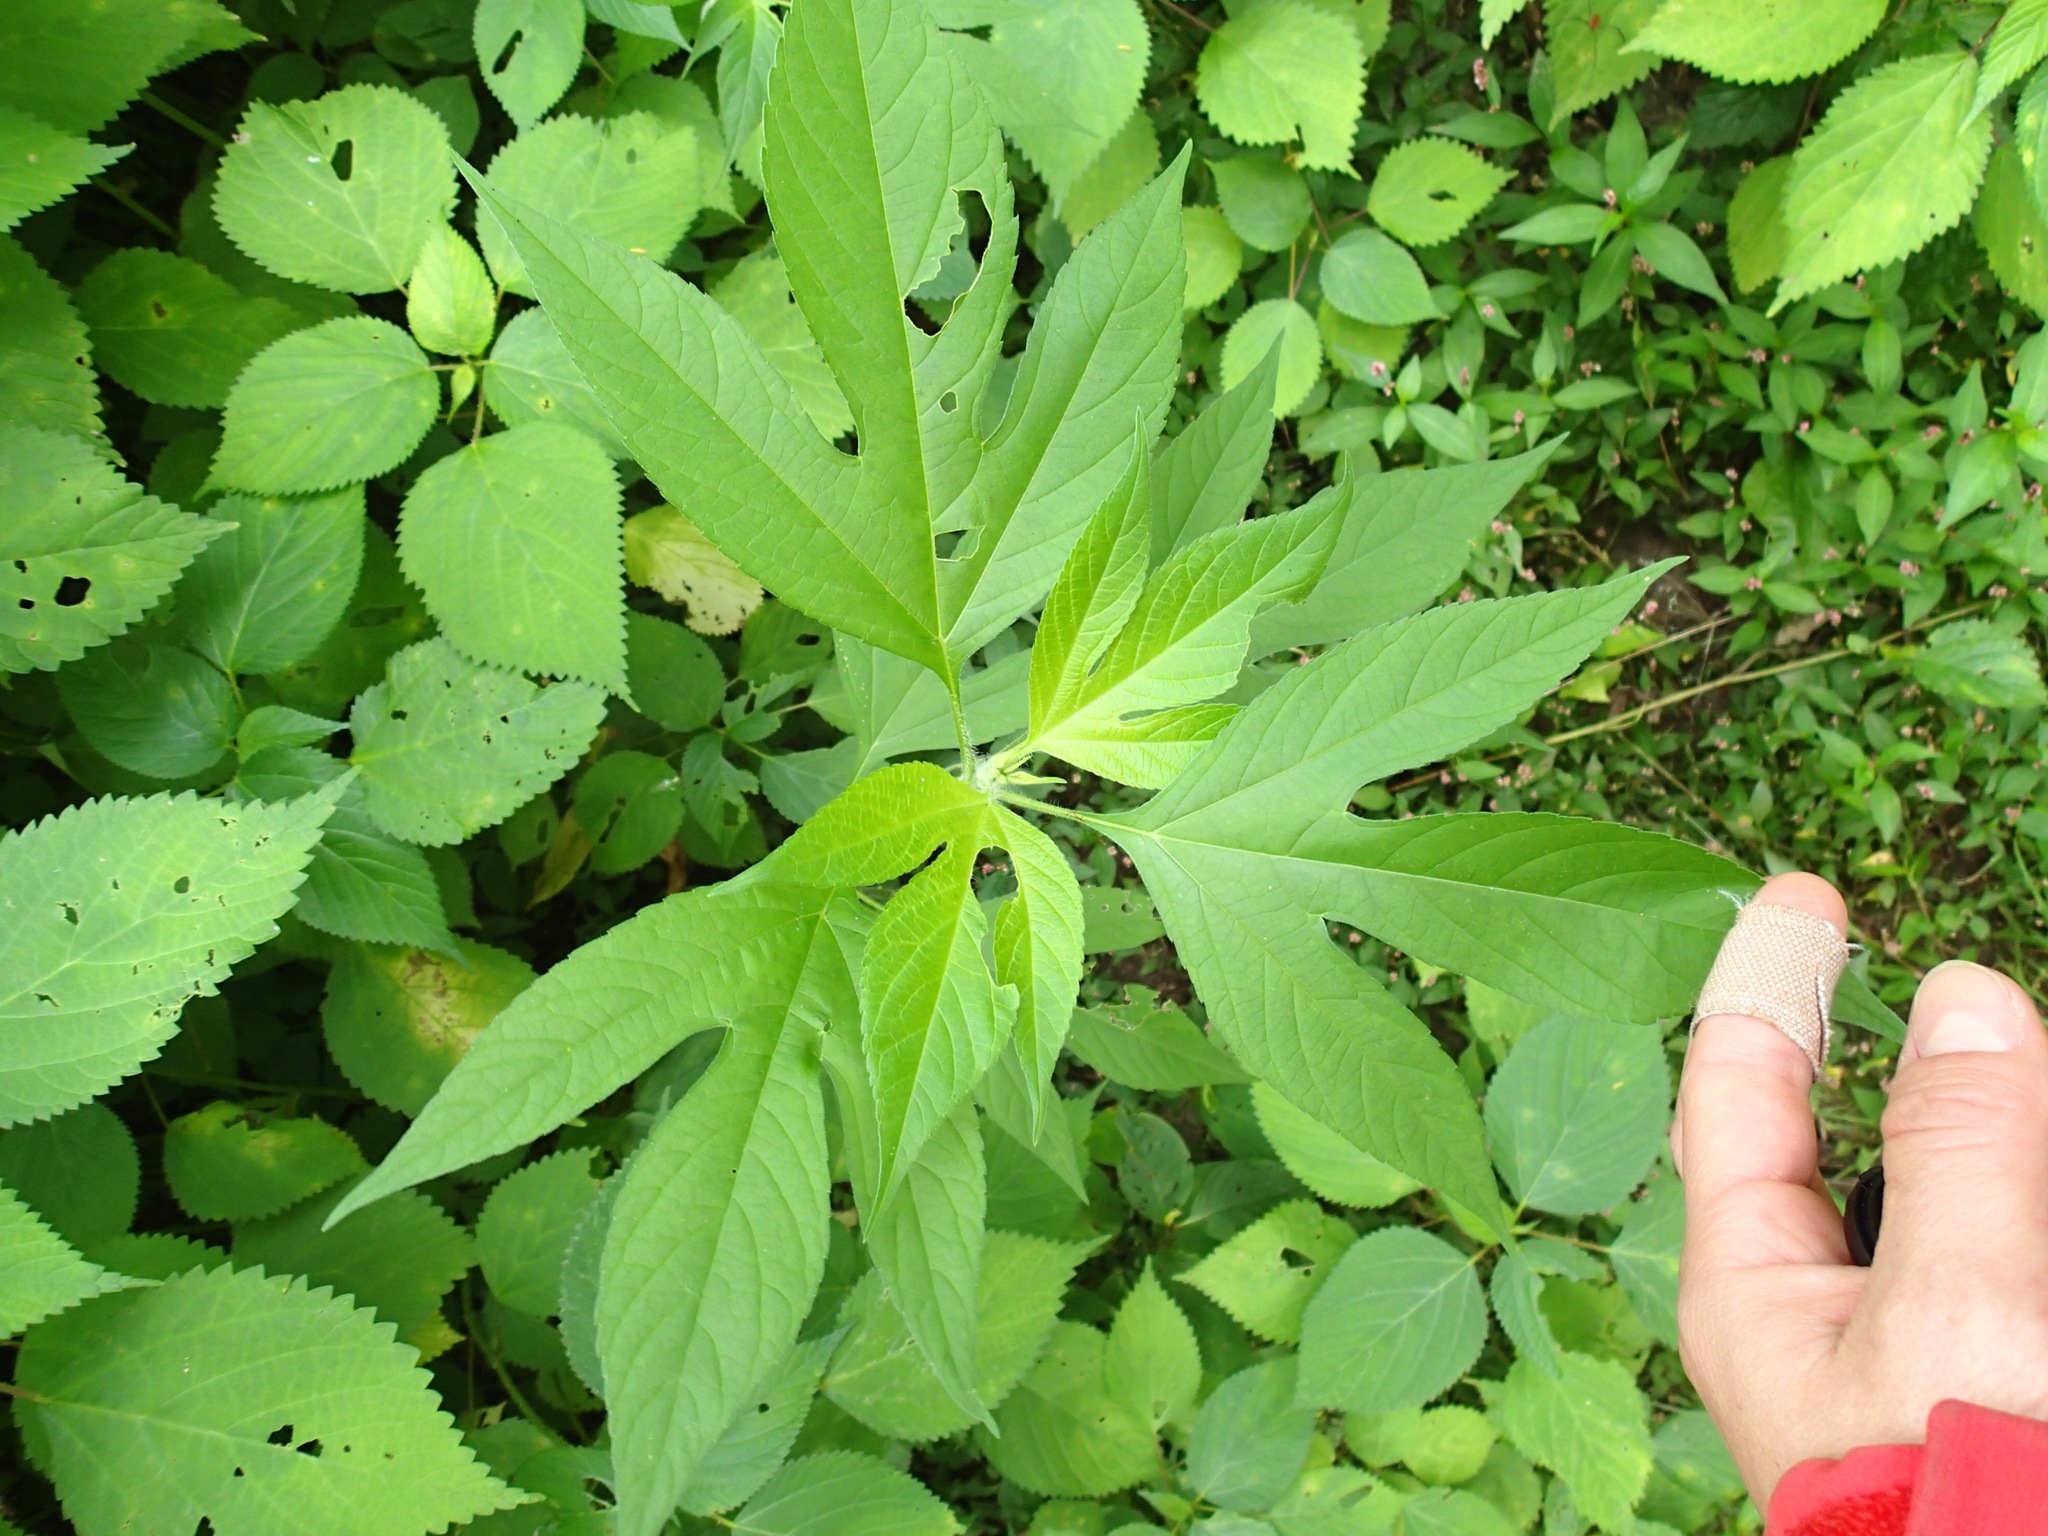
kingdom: Plantae
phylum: Tracheophyta
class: Magnoliopsida
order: Asterales
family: Asteraceae
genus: Ambrosia
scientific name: Ambrosia trifida
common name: Giant ragweed
